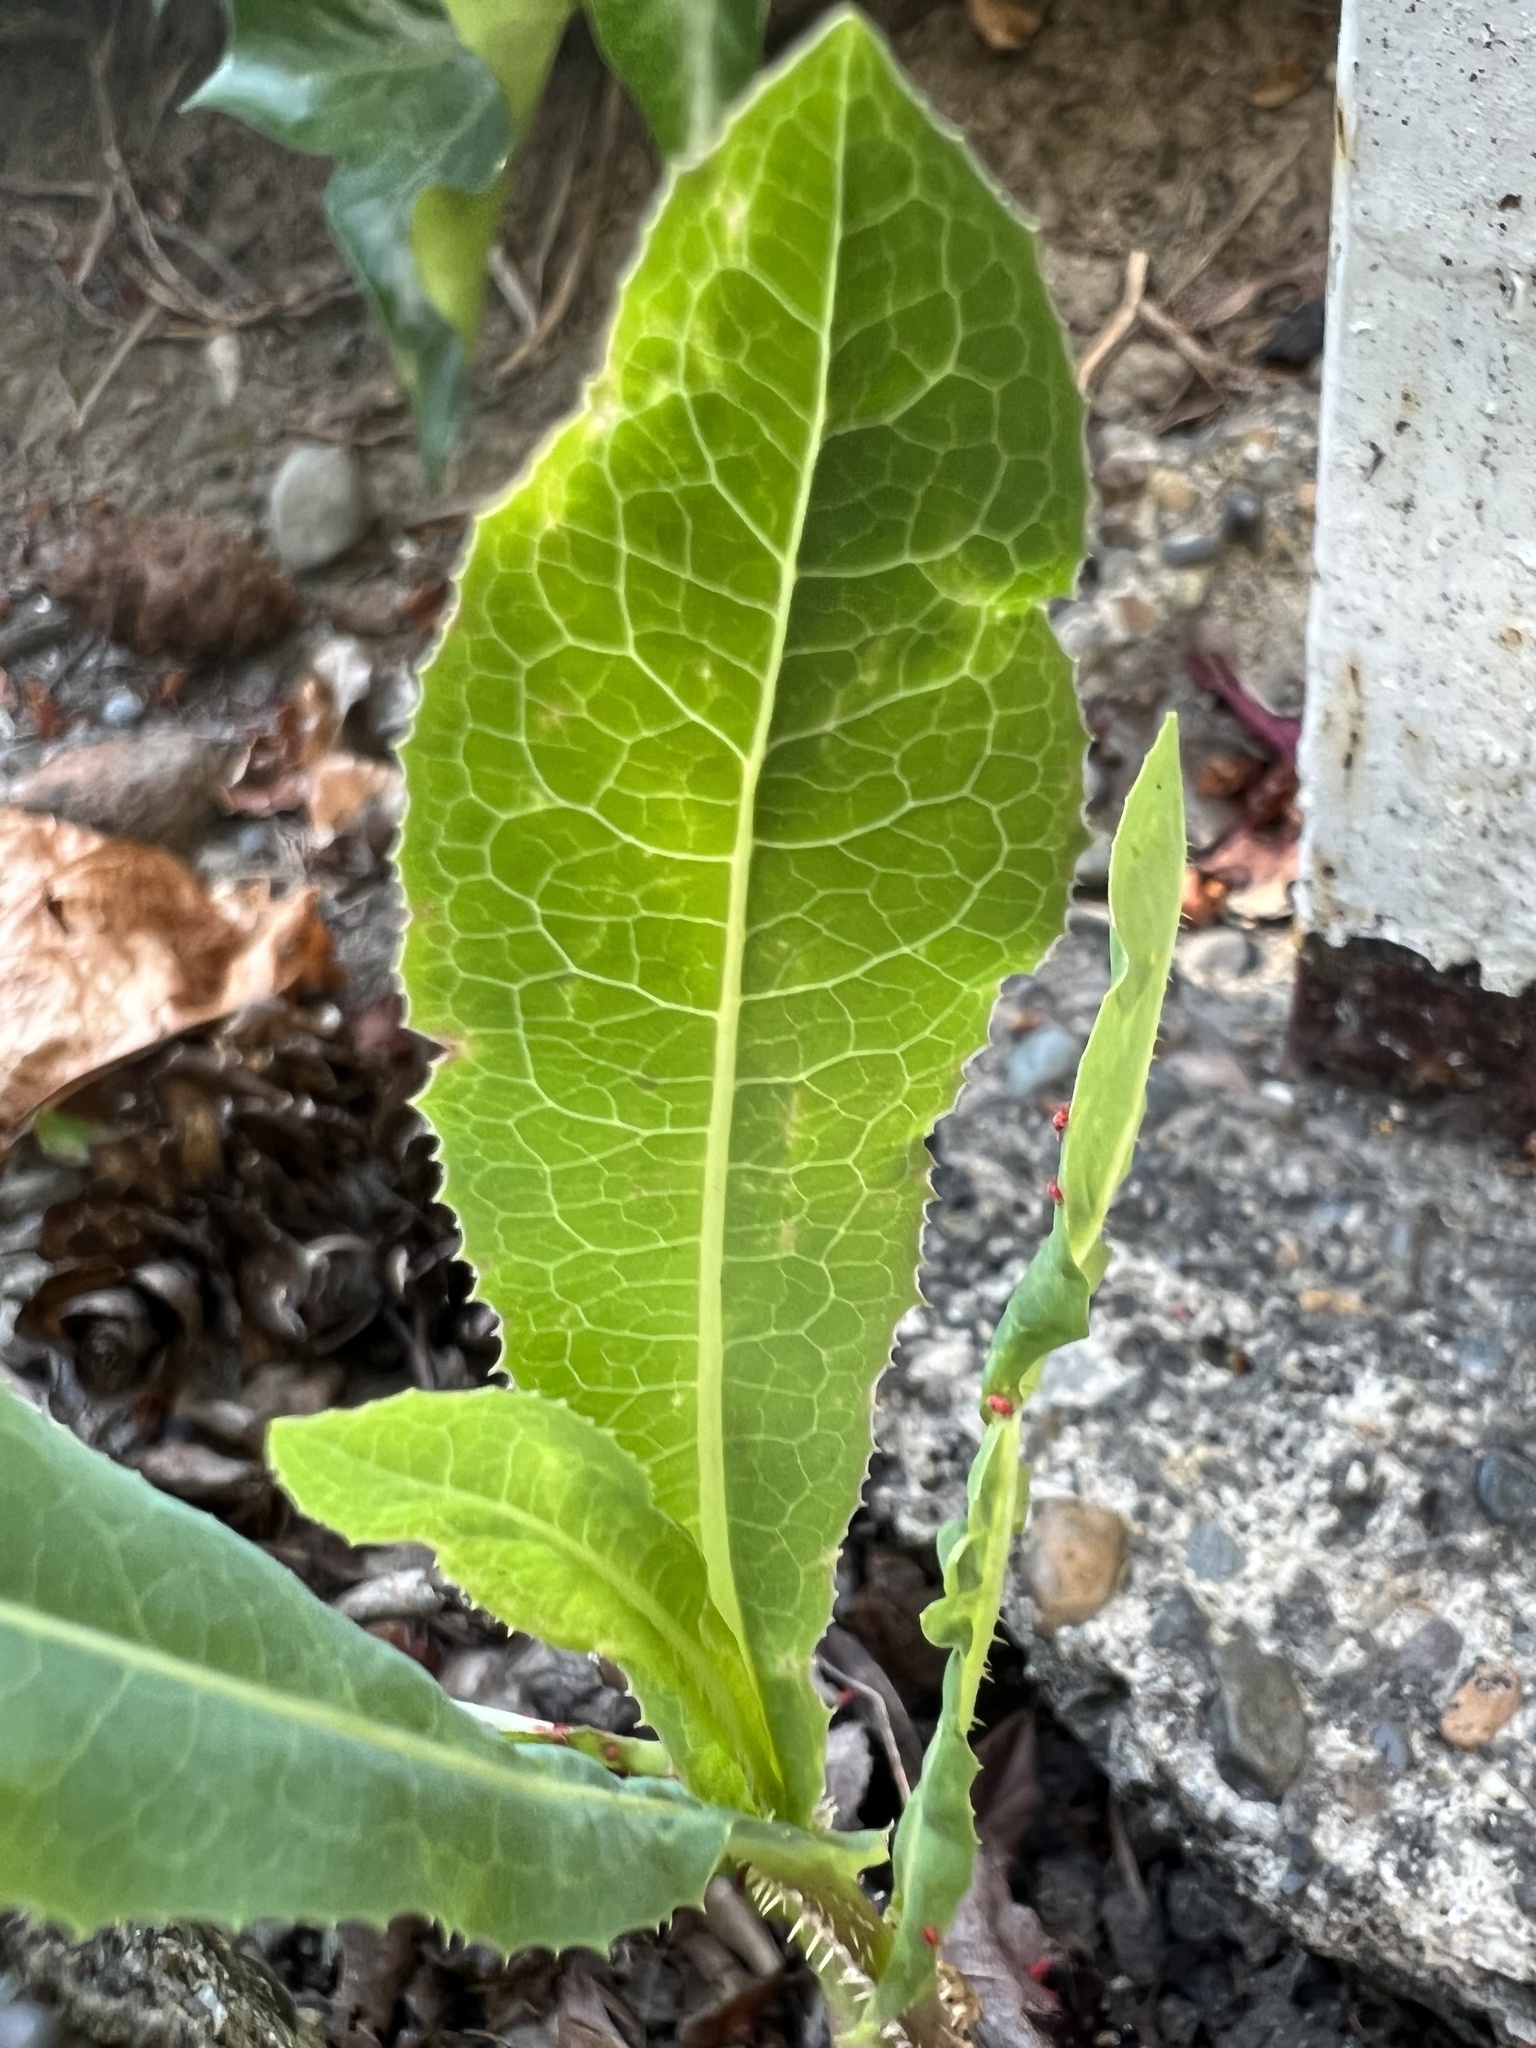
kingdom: Plantae
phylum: Tracheophyta
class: Magnoliopsida
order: Asterales
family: Asteraceae
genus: Lactuca
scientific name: Lactuca serriola
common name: Prickly lettuce
